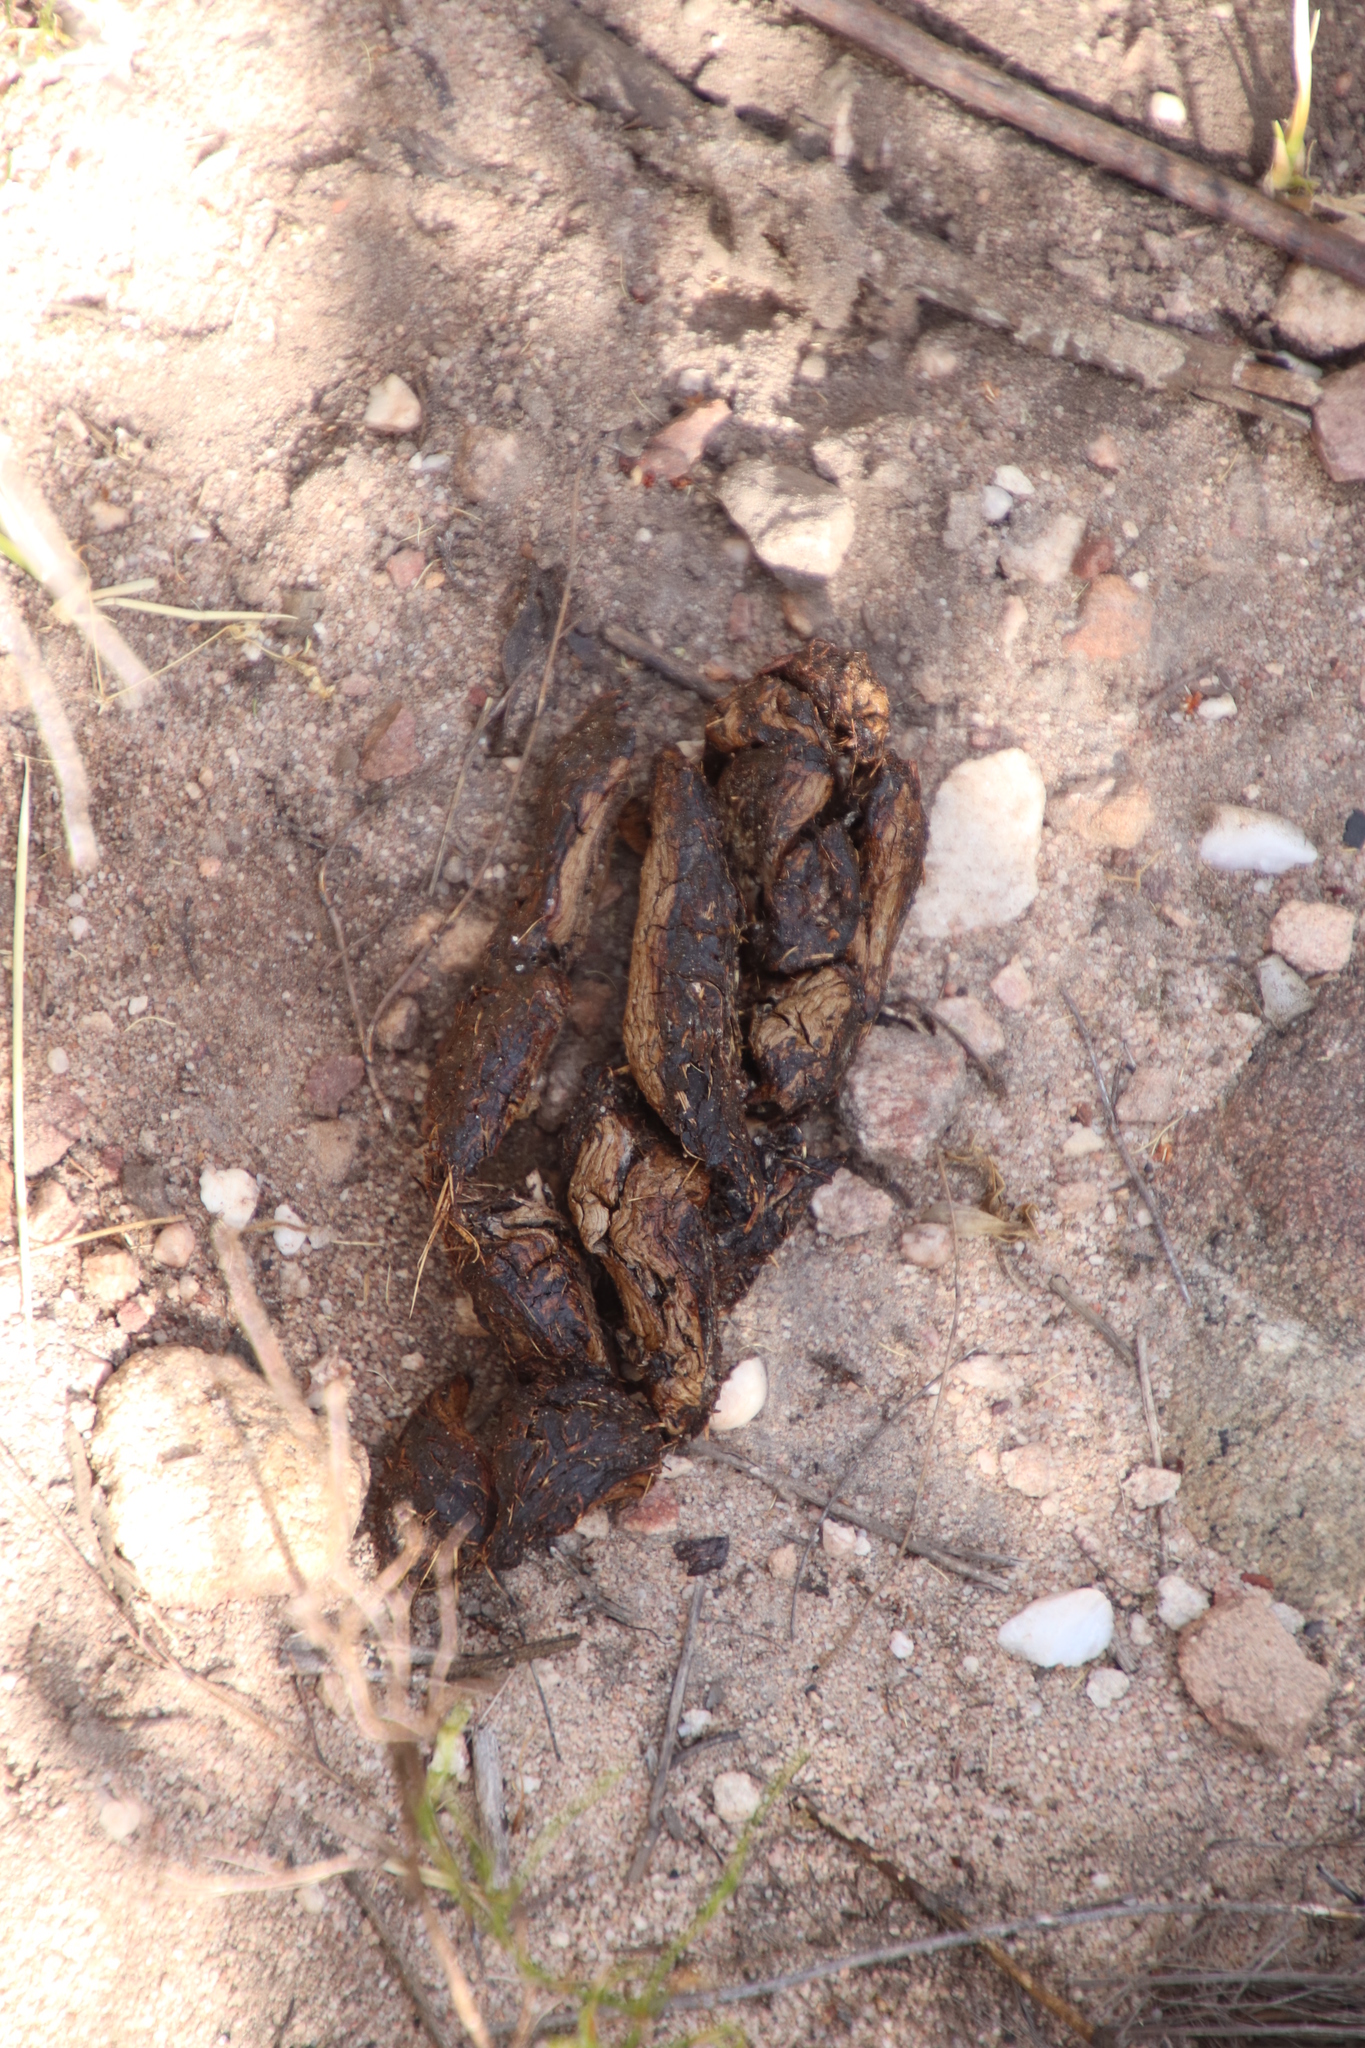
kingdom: Animalia
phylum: Chordata
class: Mammalia
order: Rodentia
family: Hystricidae
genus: Hystrix
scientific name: Hystrix africaeaustralis
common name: Cape porcupine
